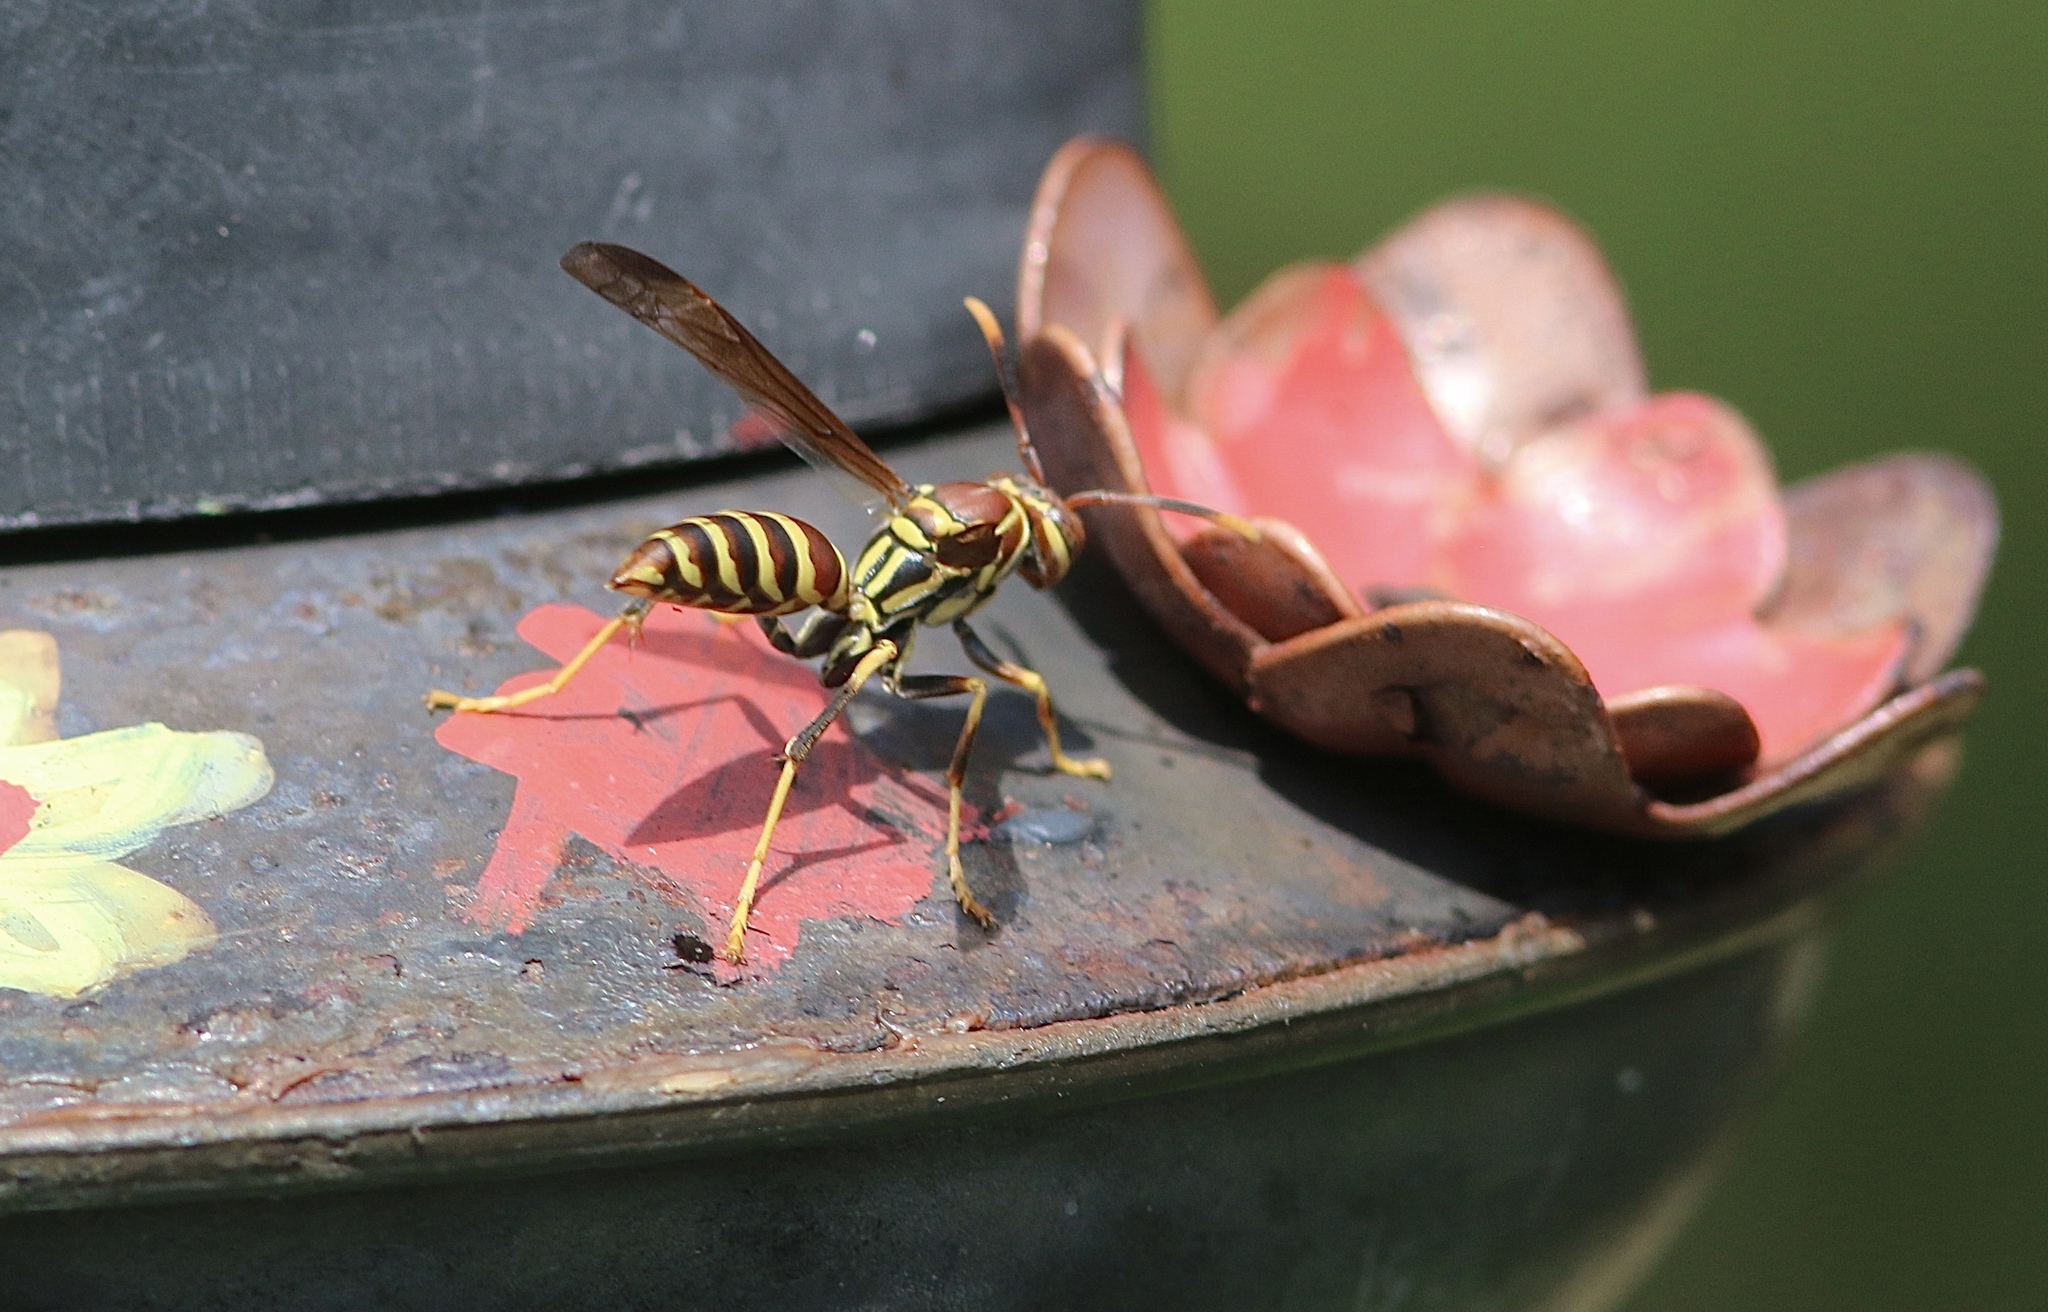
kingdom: Animalia
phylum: Arthropoda
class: Insecta
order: Hymenoptera
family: Eumenidae
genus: Polistes
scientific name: Polistes exclamans
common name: Paper wasp
